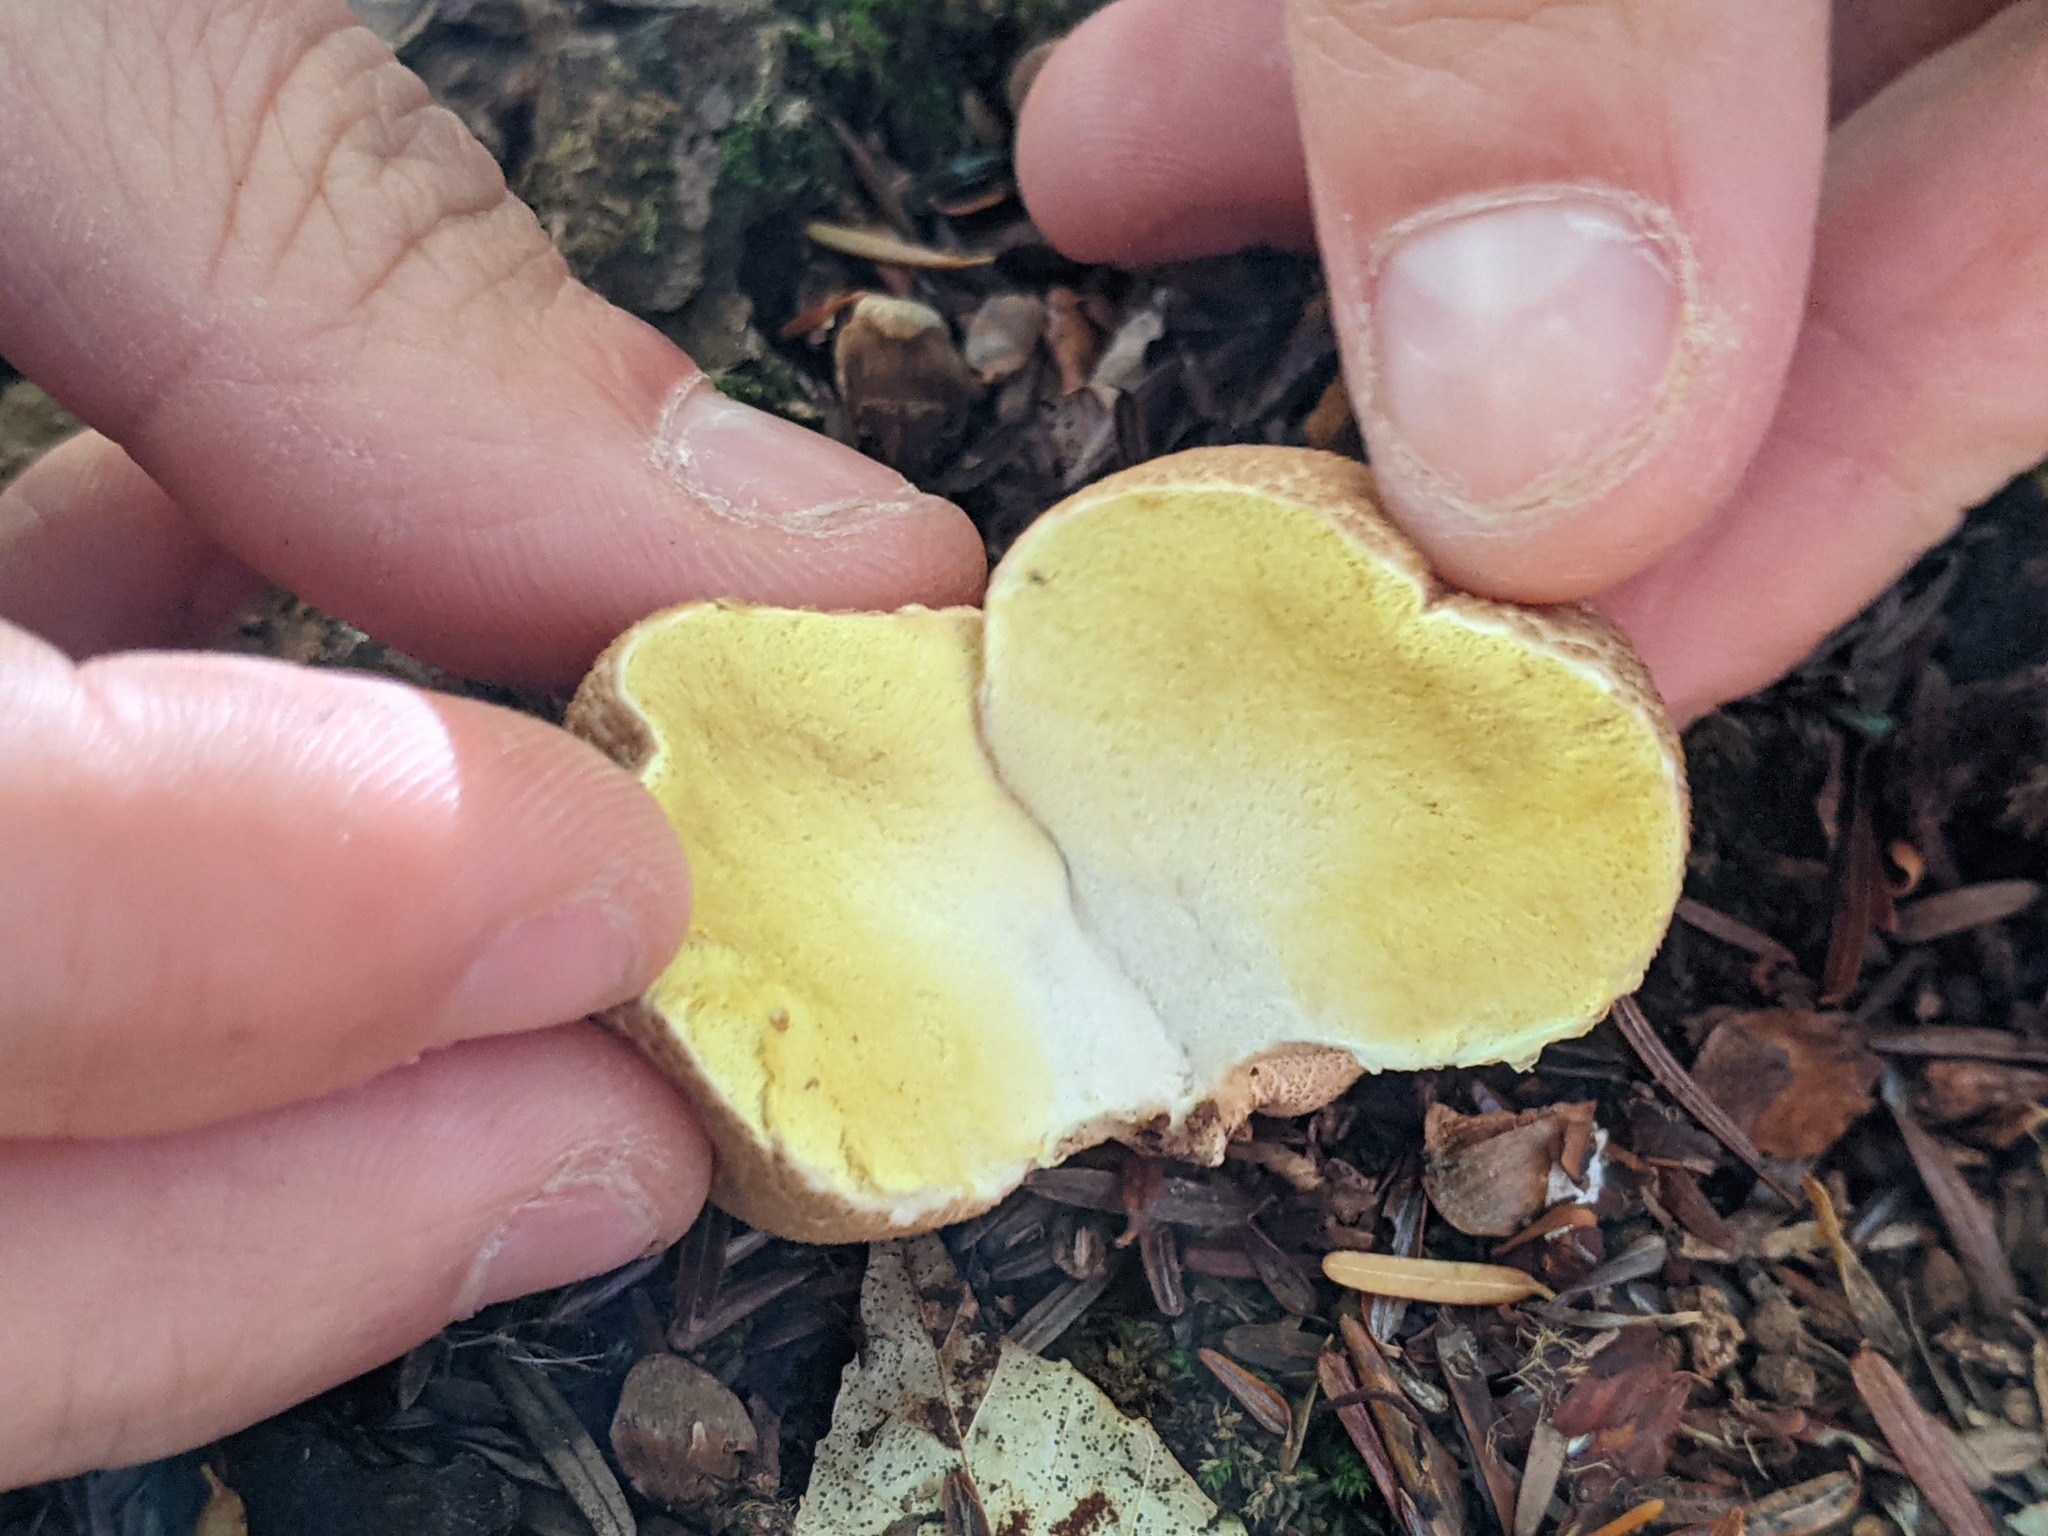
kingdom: Fungi
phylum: Basidiomycota
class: Agaricomycetes
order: Agaricales
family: Lycoperdaceae
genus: Apioperdon
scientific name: Apioperdon pyriforme
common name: Pear-shaped puffball
